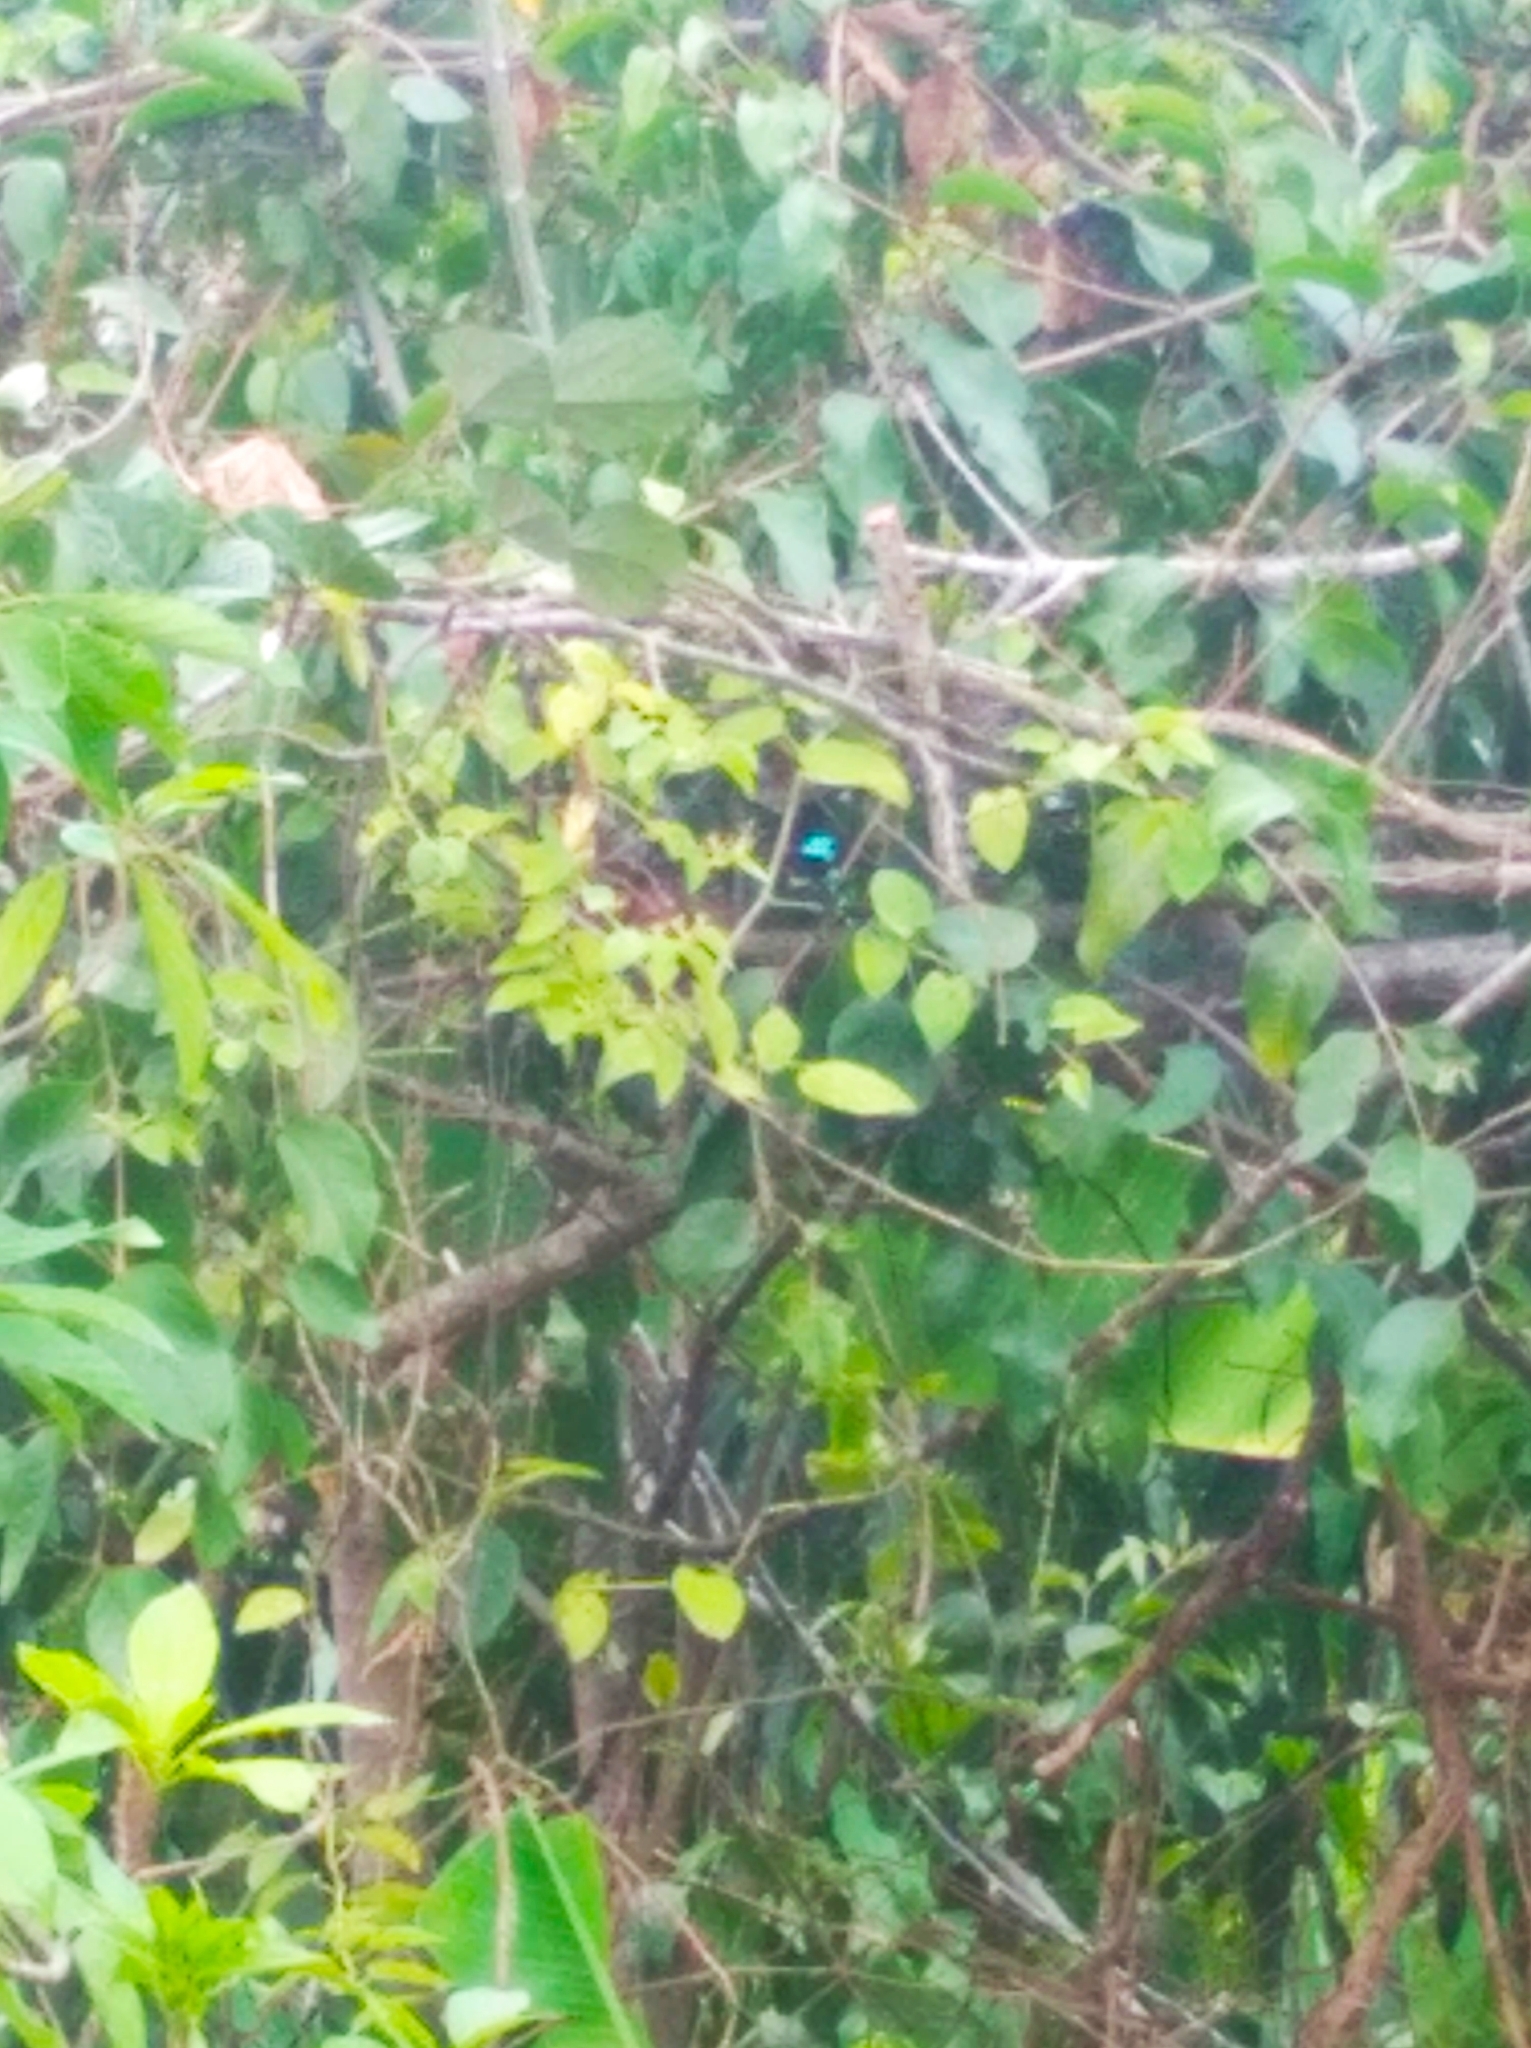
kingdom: Animalia
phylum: Chordata
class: Aves
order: Passeriformes
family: Thraupidae
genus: Stilpnia
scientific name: Stilpnia cyanicollis
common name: Blue-necked tanager
